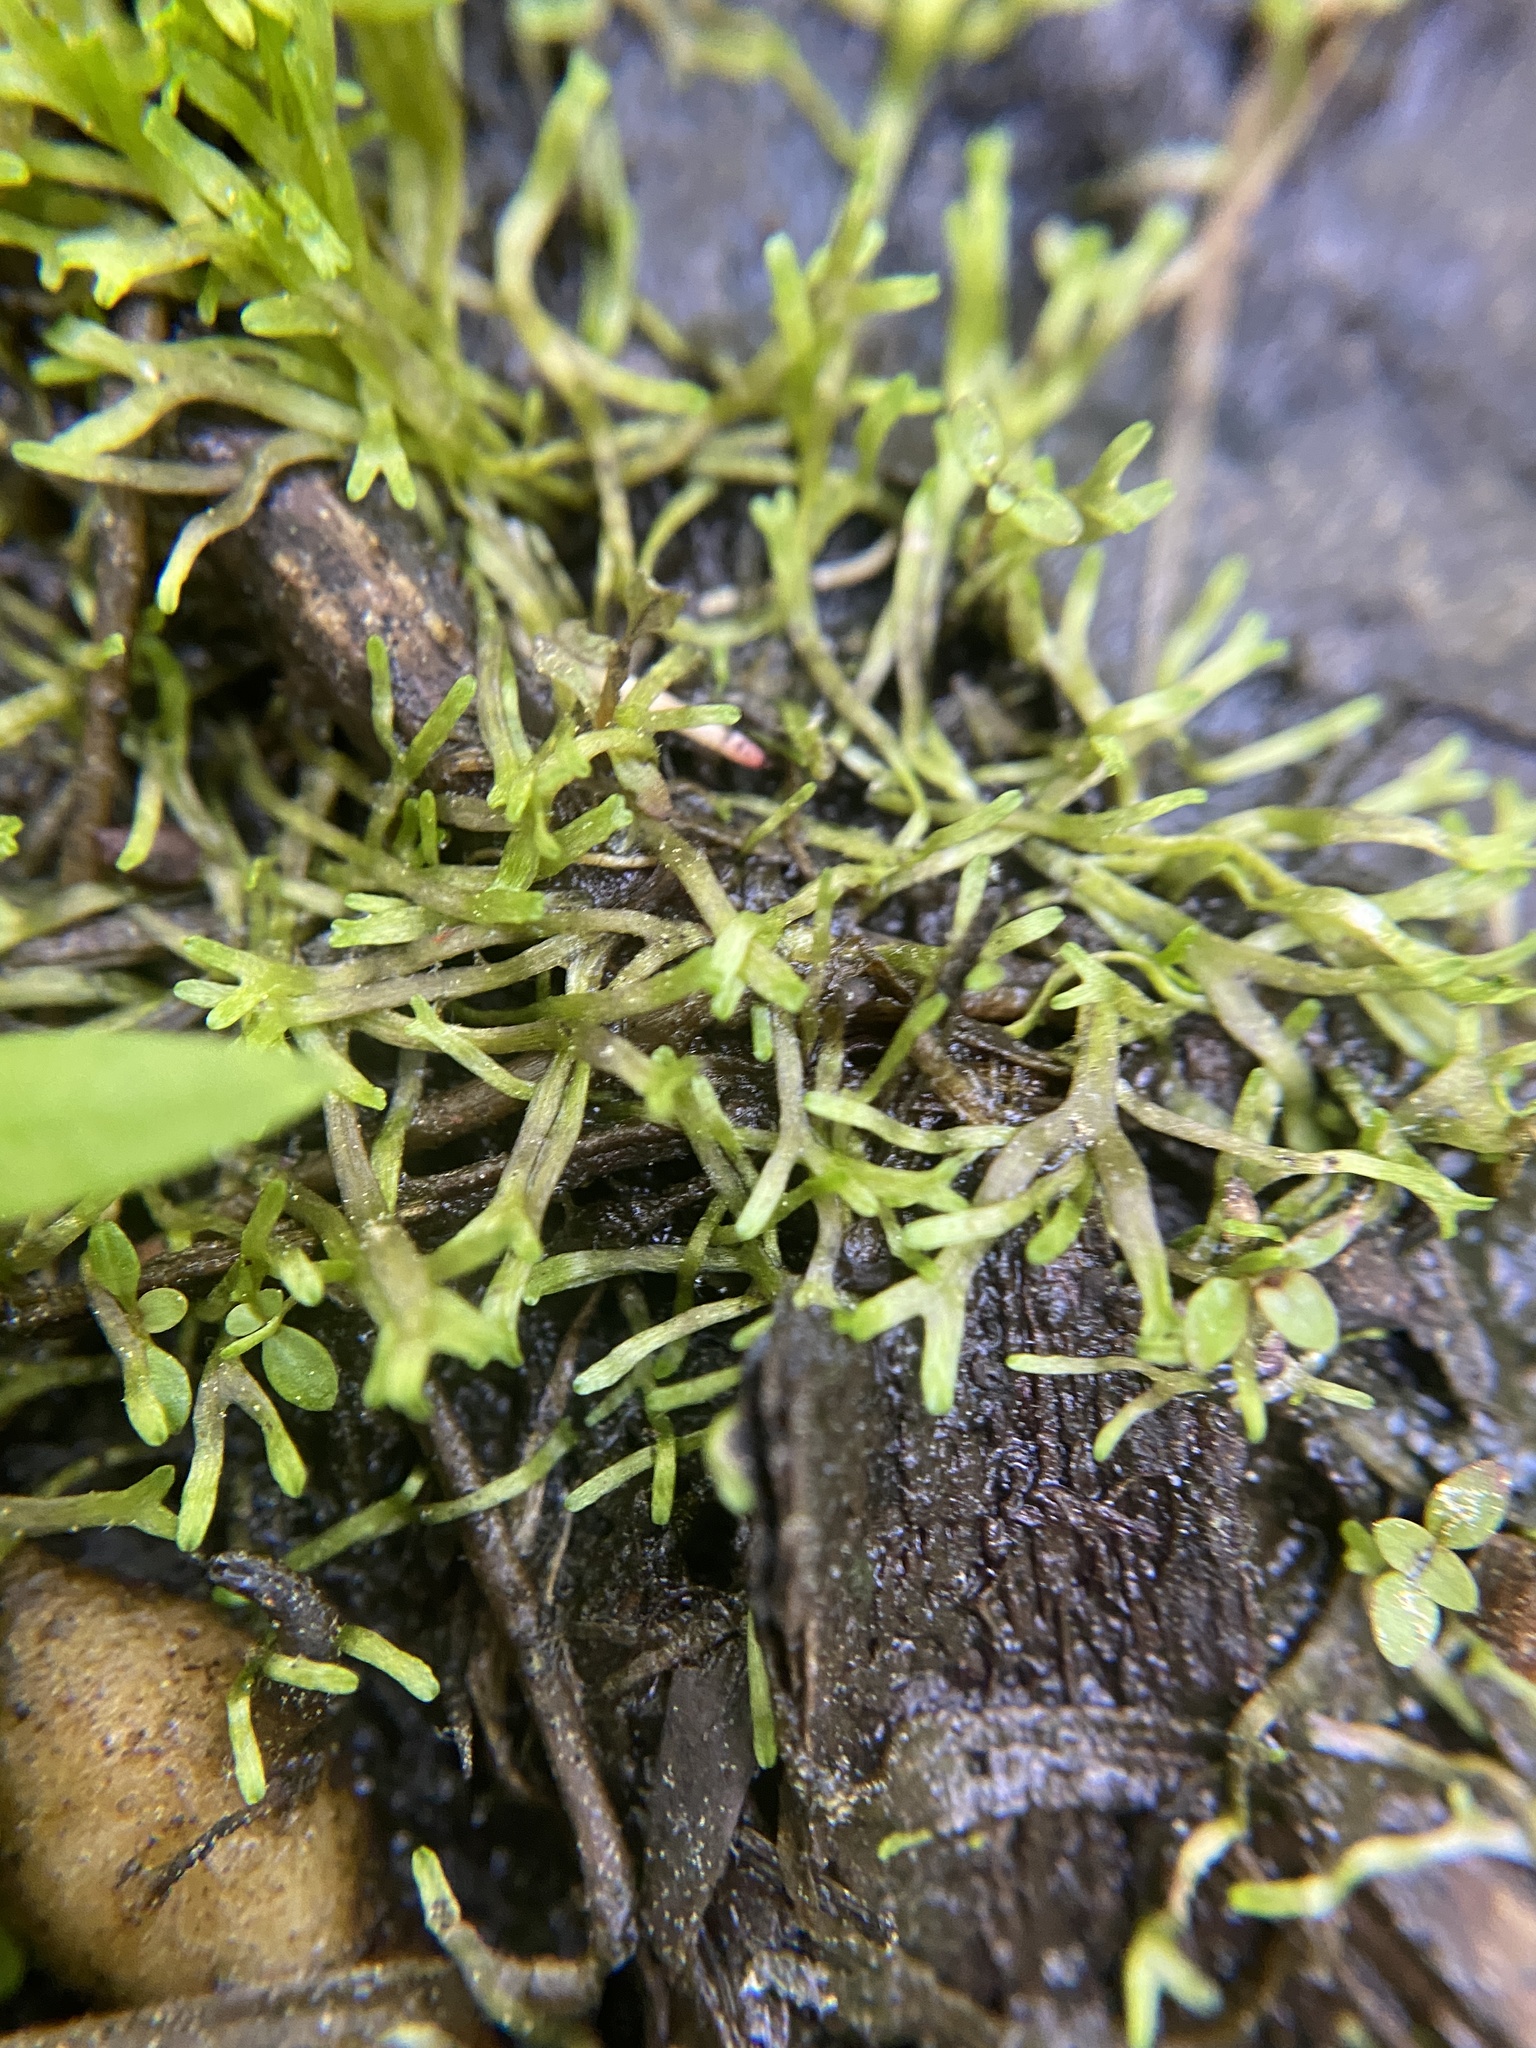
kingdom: Plantae
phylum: Marchantiophyta
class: Marchantiopsida
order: Marchantiales
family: Ricciaceae
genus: Riccia
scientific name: Riccia fluitans
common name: Floating crystalwort
